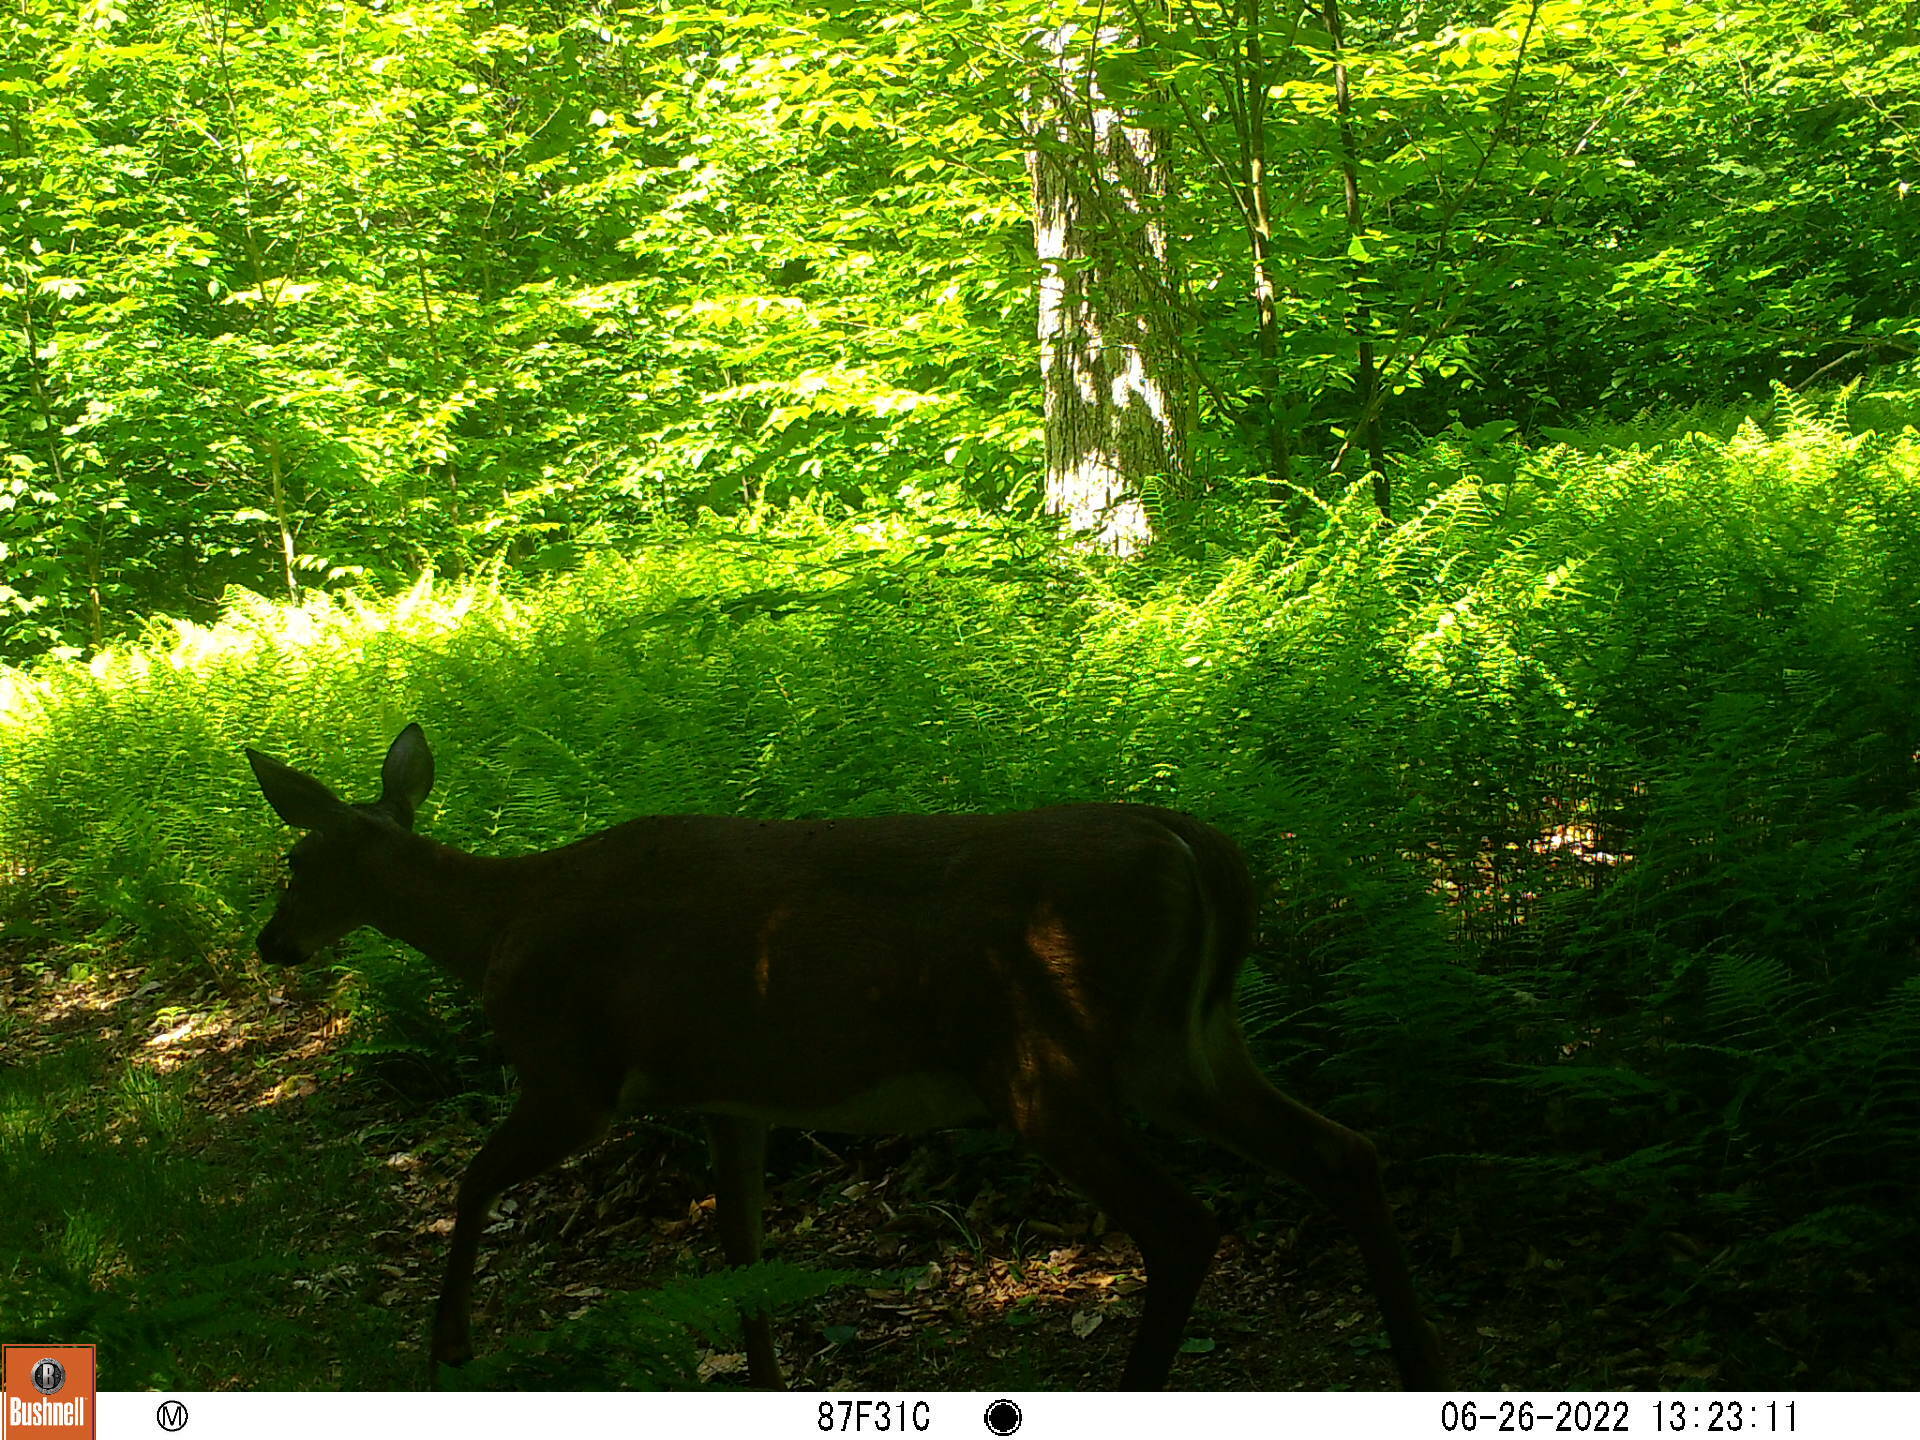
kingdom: Animalia
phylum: Chordata
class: Mammalia
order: Artiodactyla
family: Cervidae
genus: Odocoileus
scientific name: Odocoileus virginianus
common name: White-tailed deer
